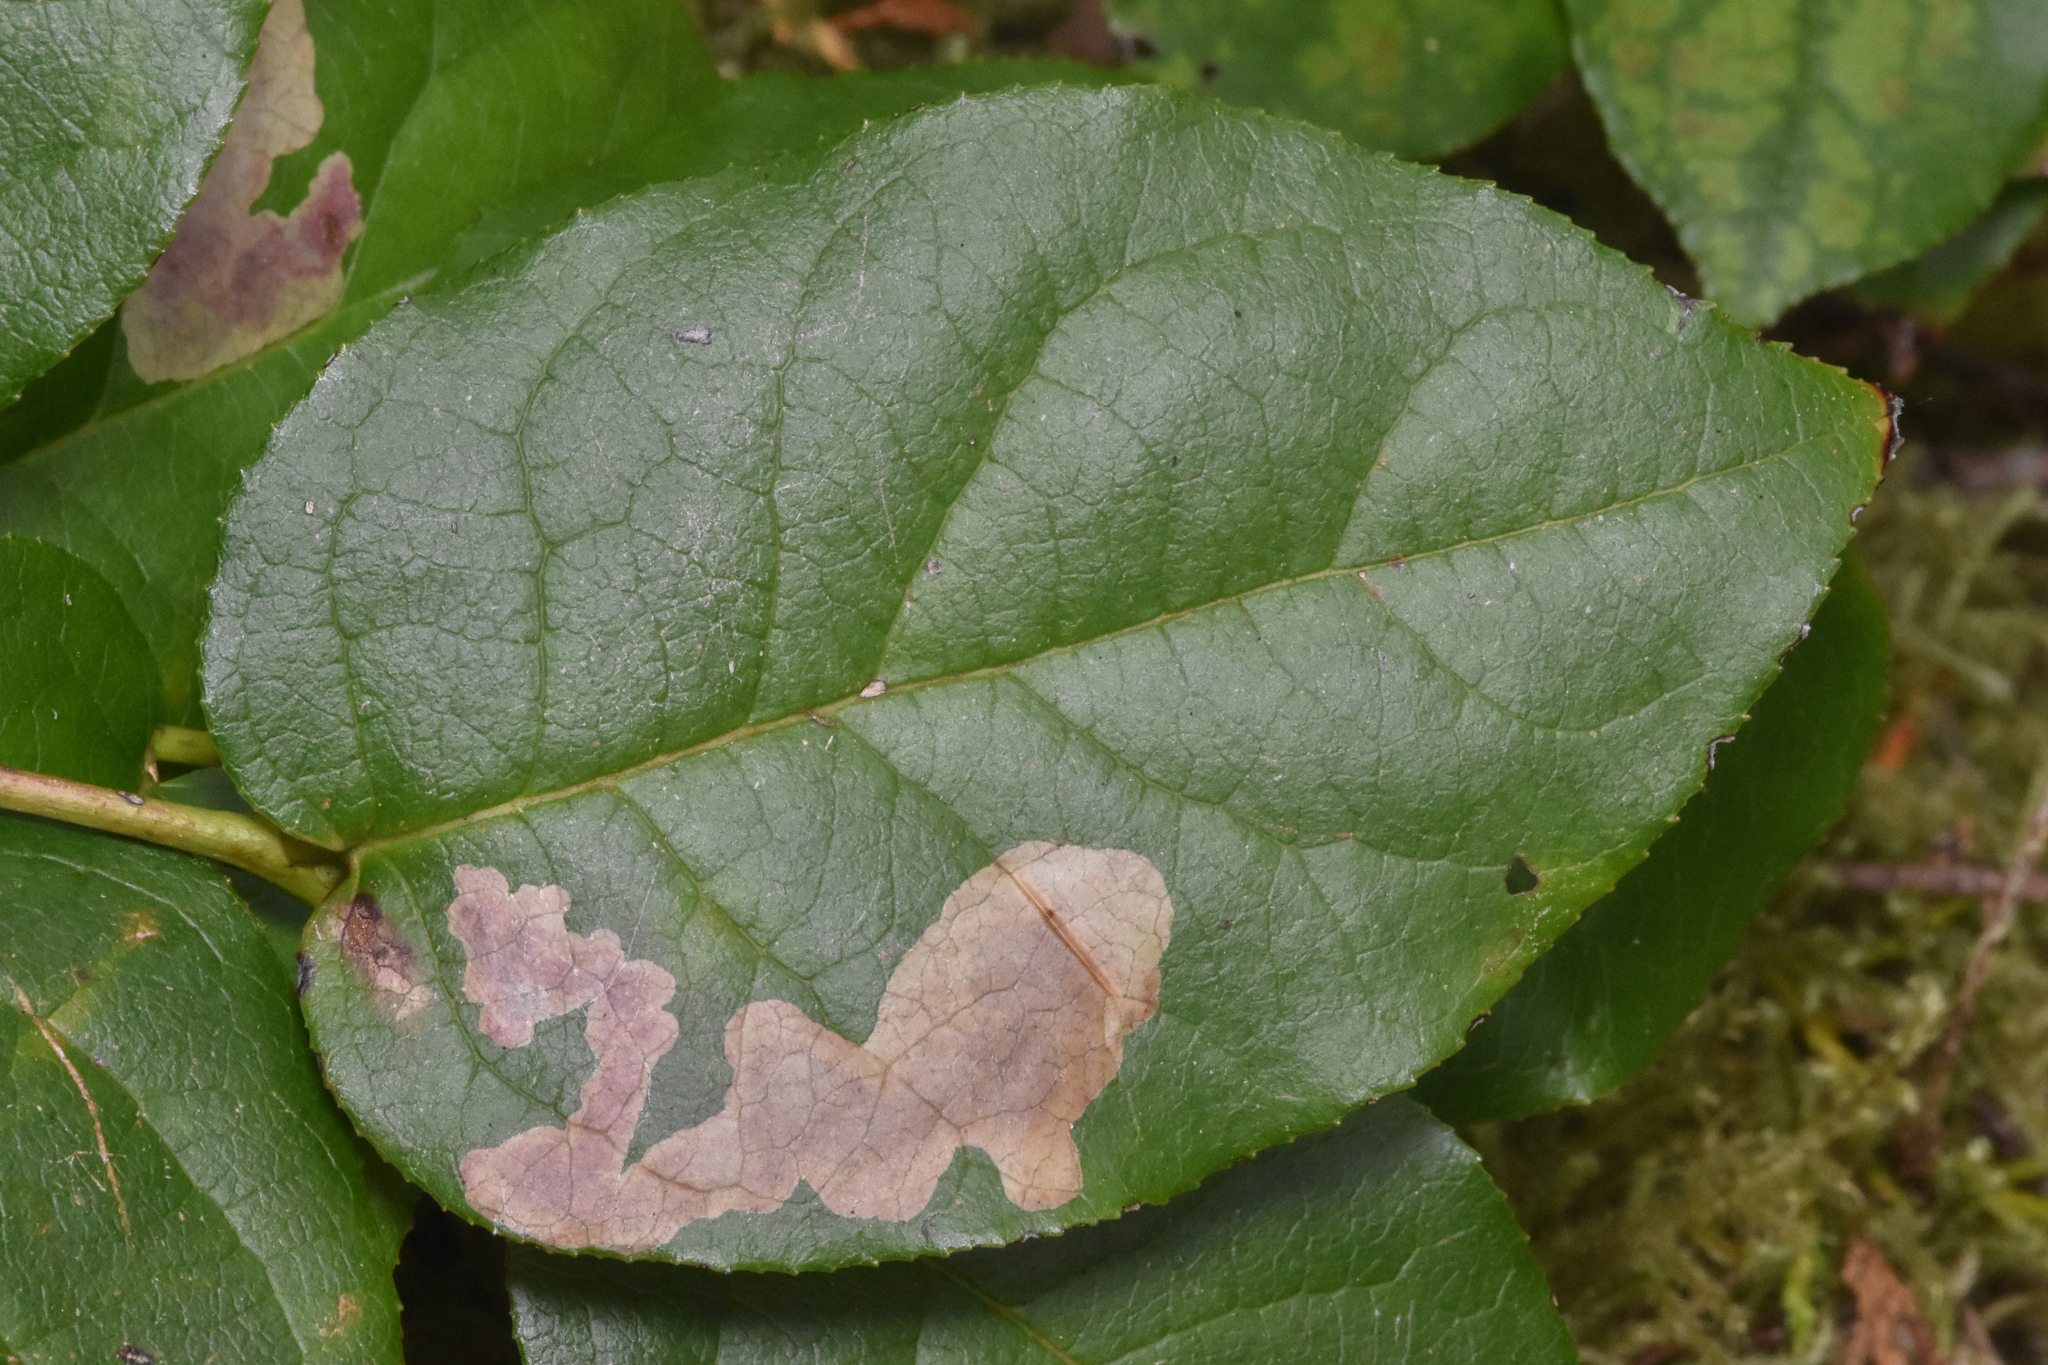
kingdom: Animalia
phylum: Arthropoda
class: Insecta
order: Lepidoptera
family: Gracillariidae
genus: Cameraria
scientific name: Cameraria gaultheriella
